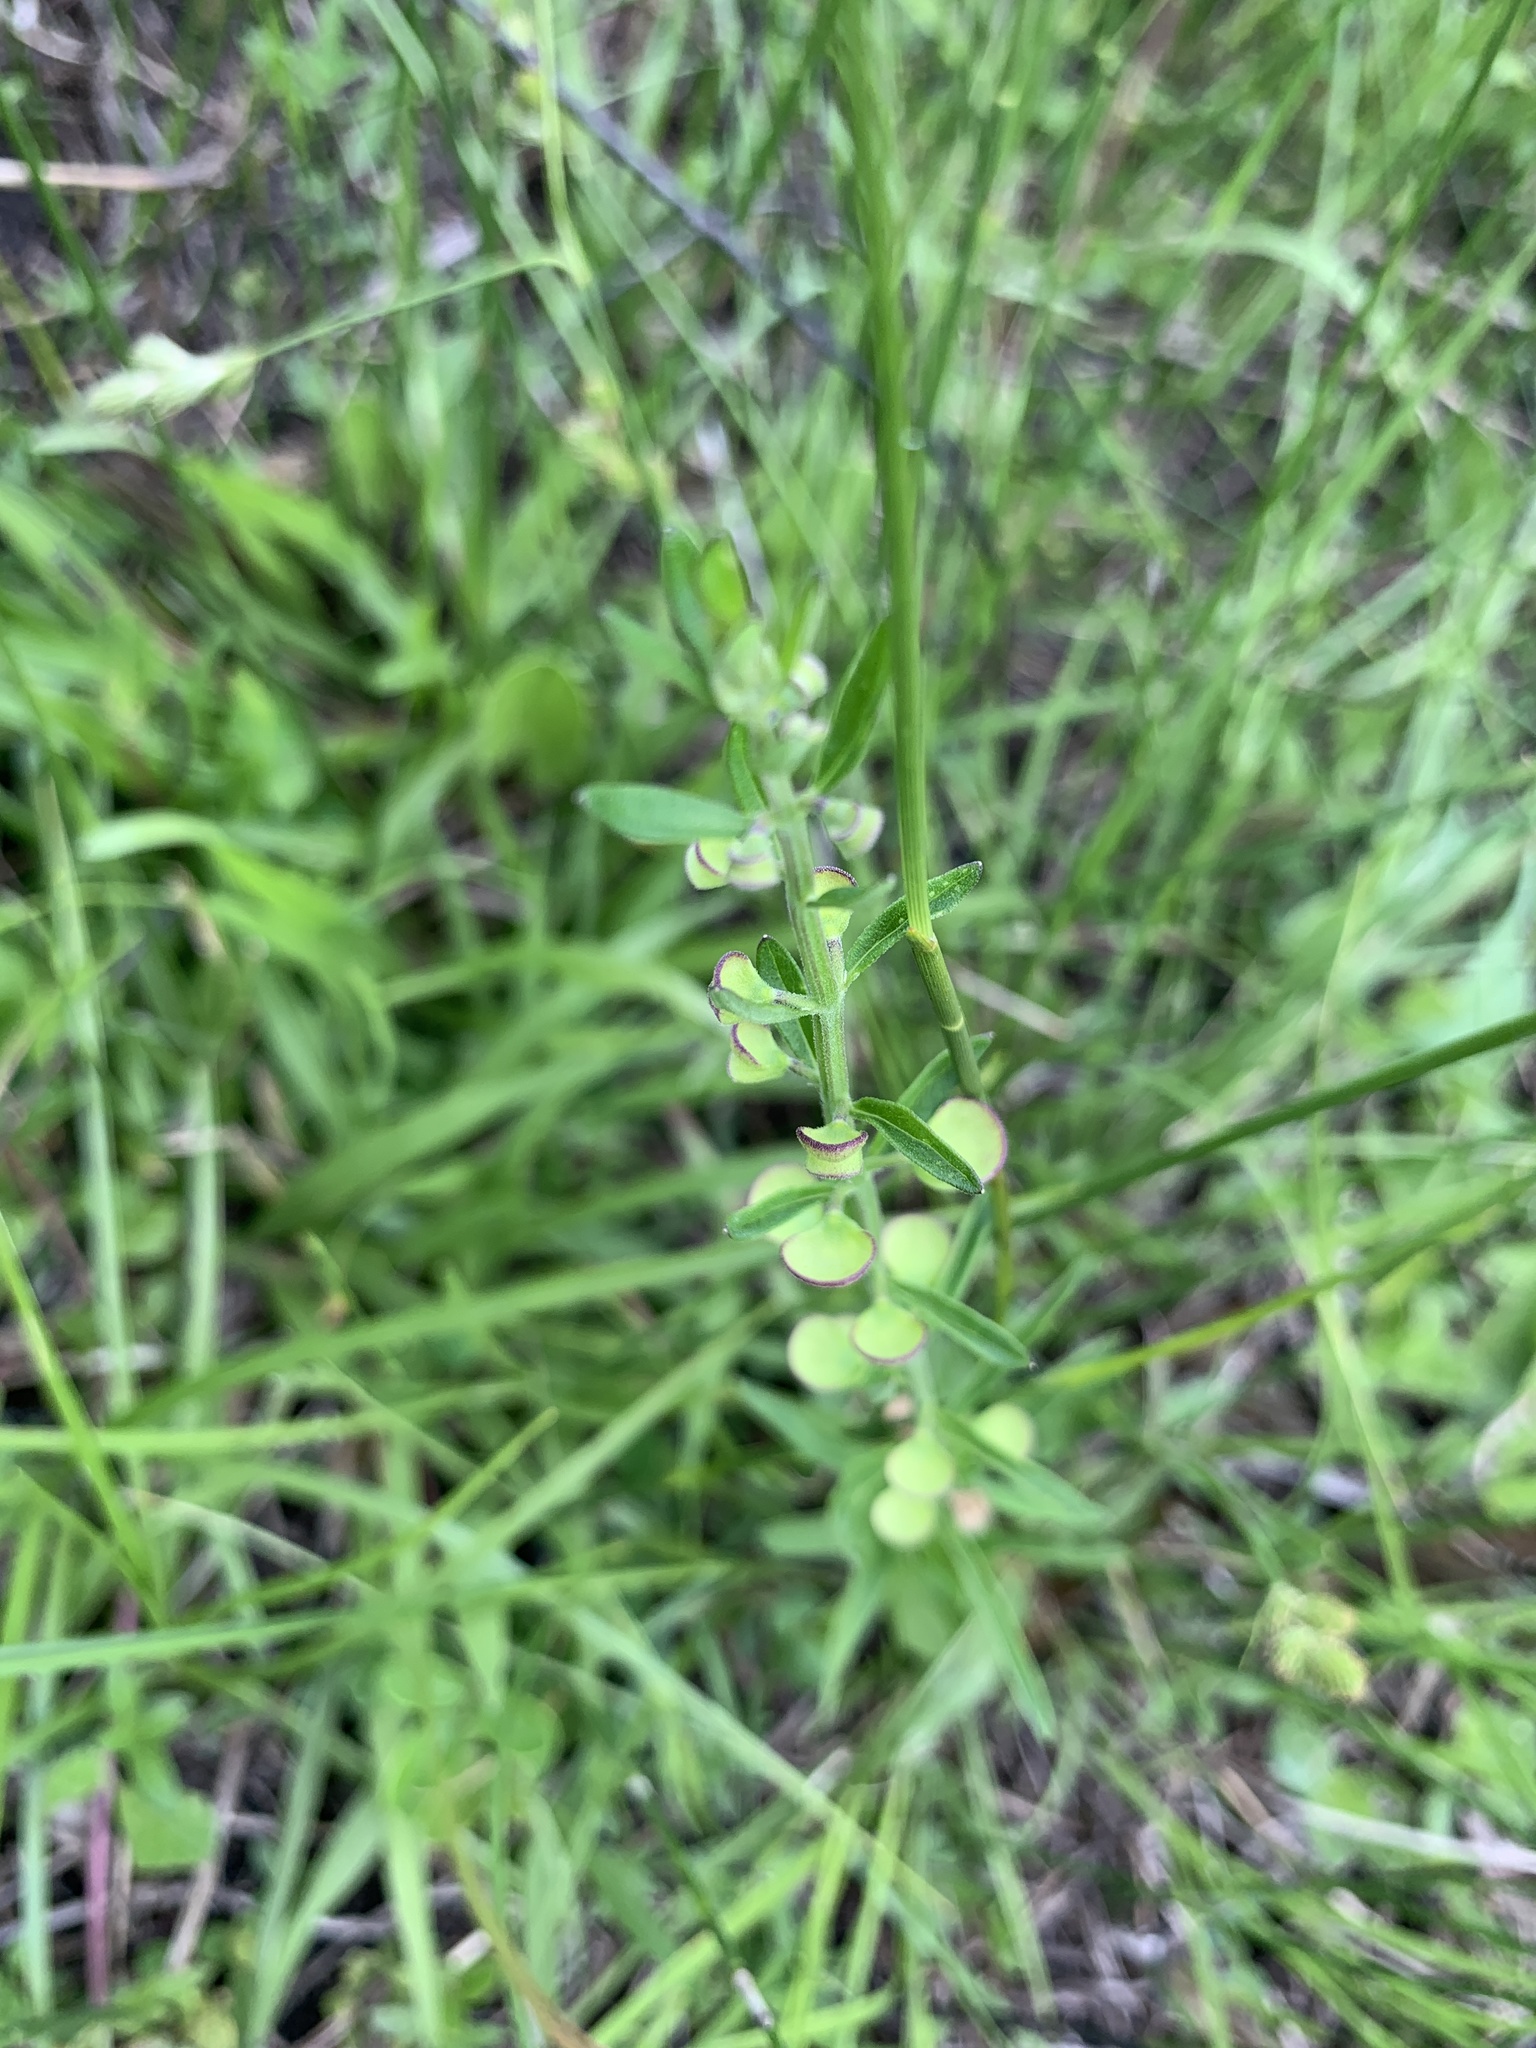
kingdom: Plantae
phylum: Tracheophyta
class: Magnoliopsida
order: Lamiales
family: Lamiaceae
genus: Scutellaria
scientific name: Scutellaria
